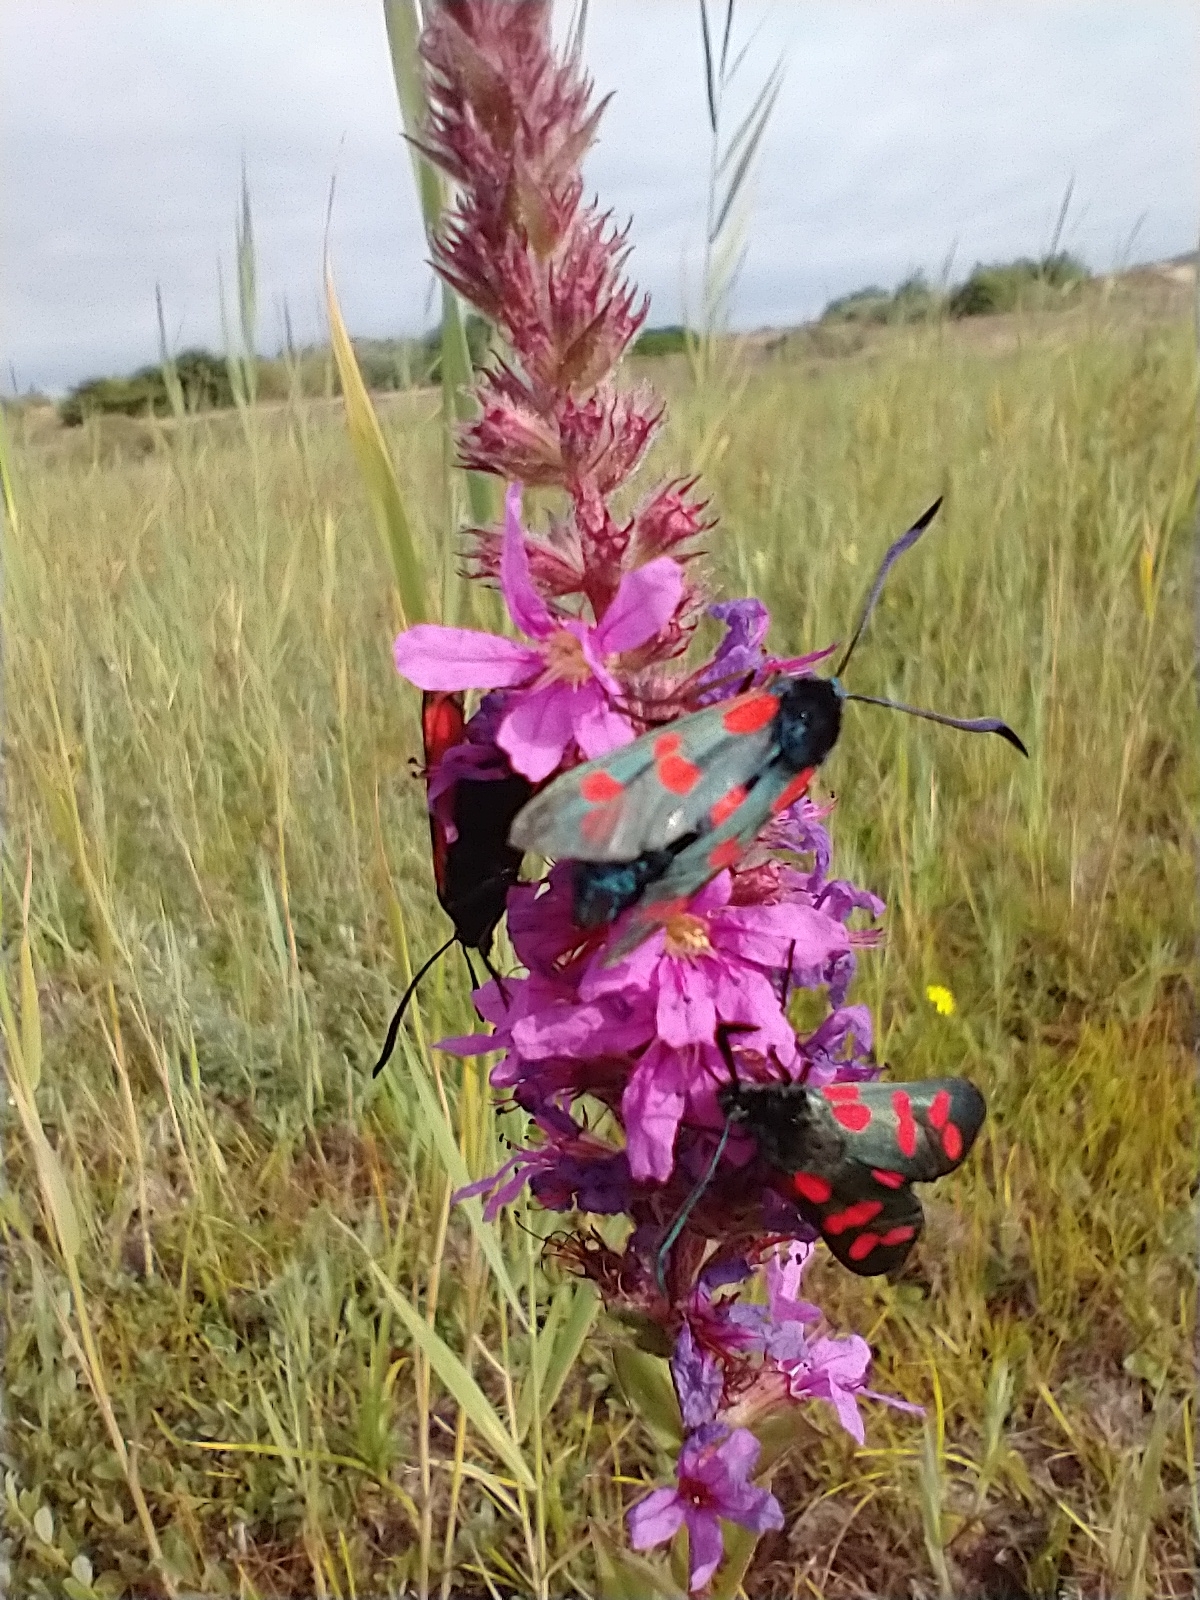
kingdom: Animalia
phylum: Arthropoda
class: Insecta
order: Lepidoptera
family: Zygaenidae
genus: Zygaena
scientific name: Zygaena filipendulae
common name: Six-spot burnet
